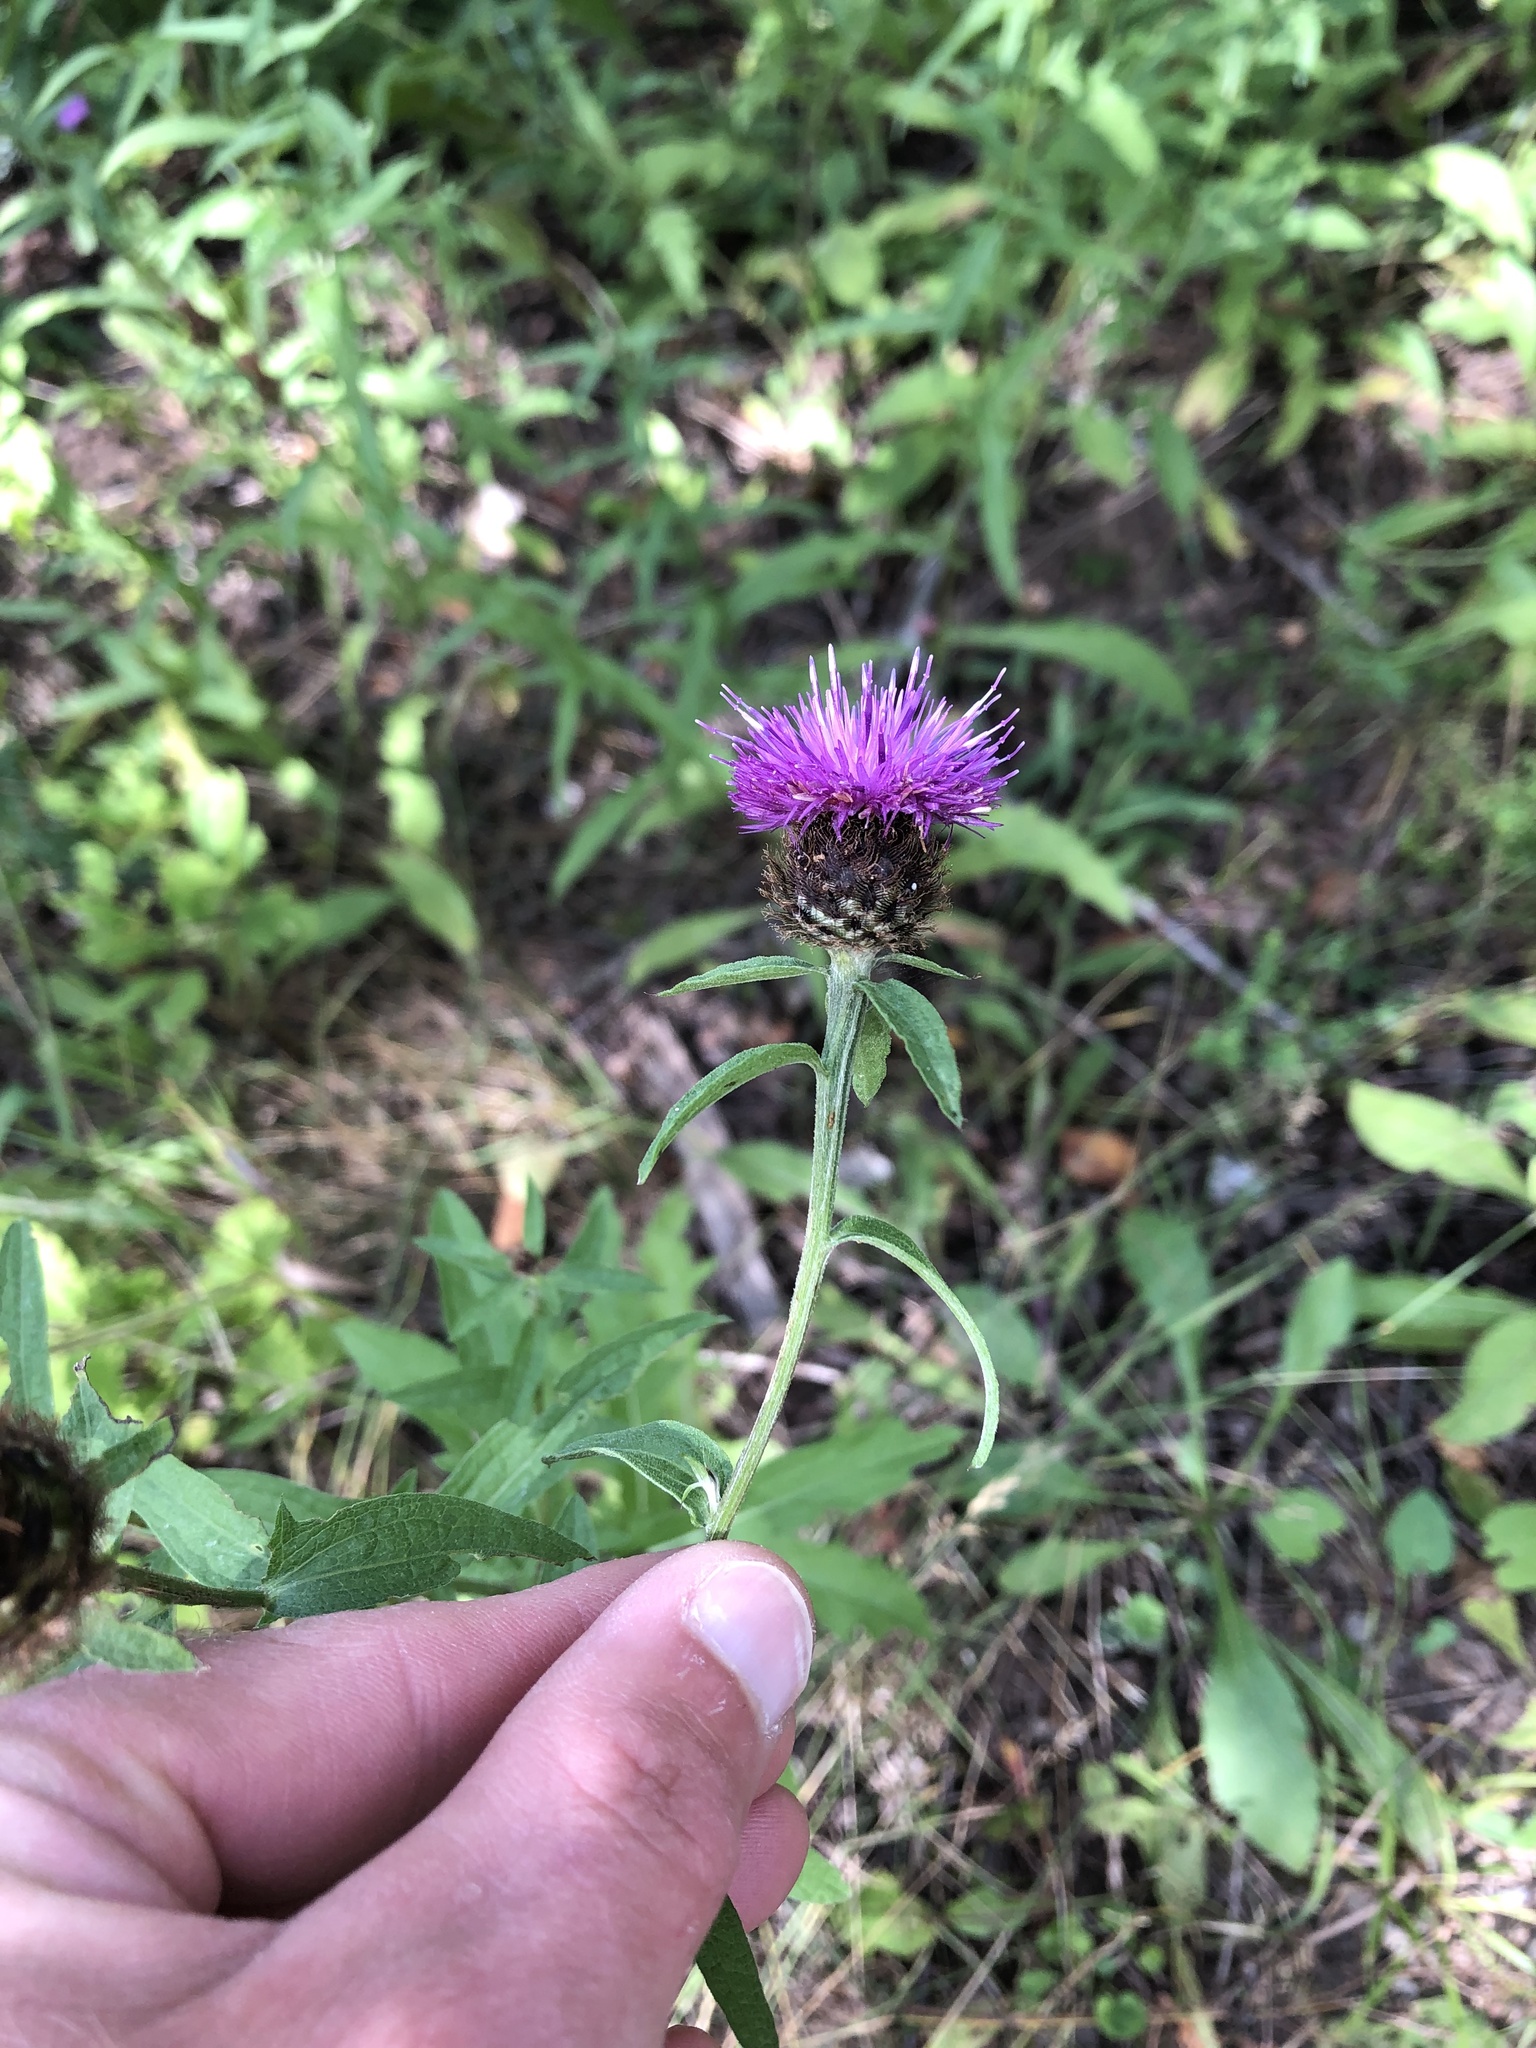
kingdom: Plantae
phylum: Tracheophyta
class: Magnoliopsida
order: Asterales
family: Asteraceae
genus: Centaurea
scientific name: Centaurea nigra
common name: Lesser knapweed
